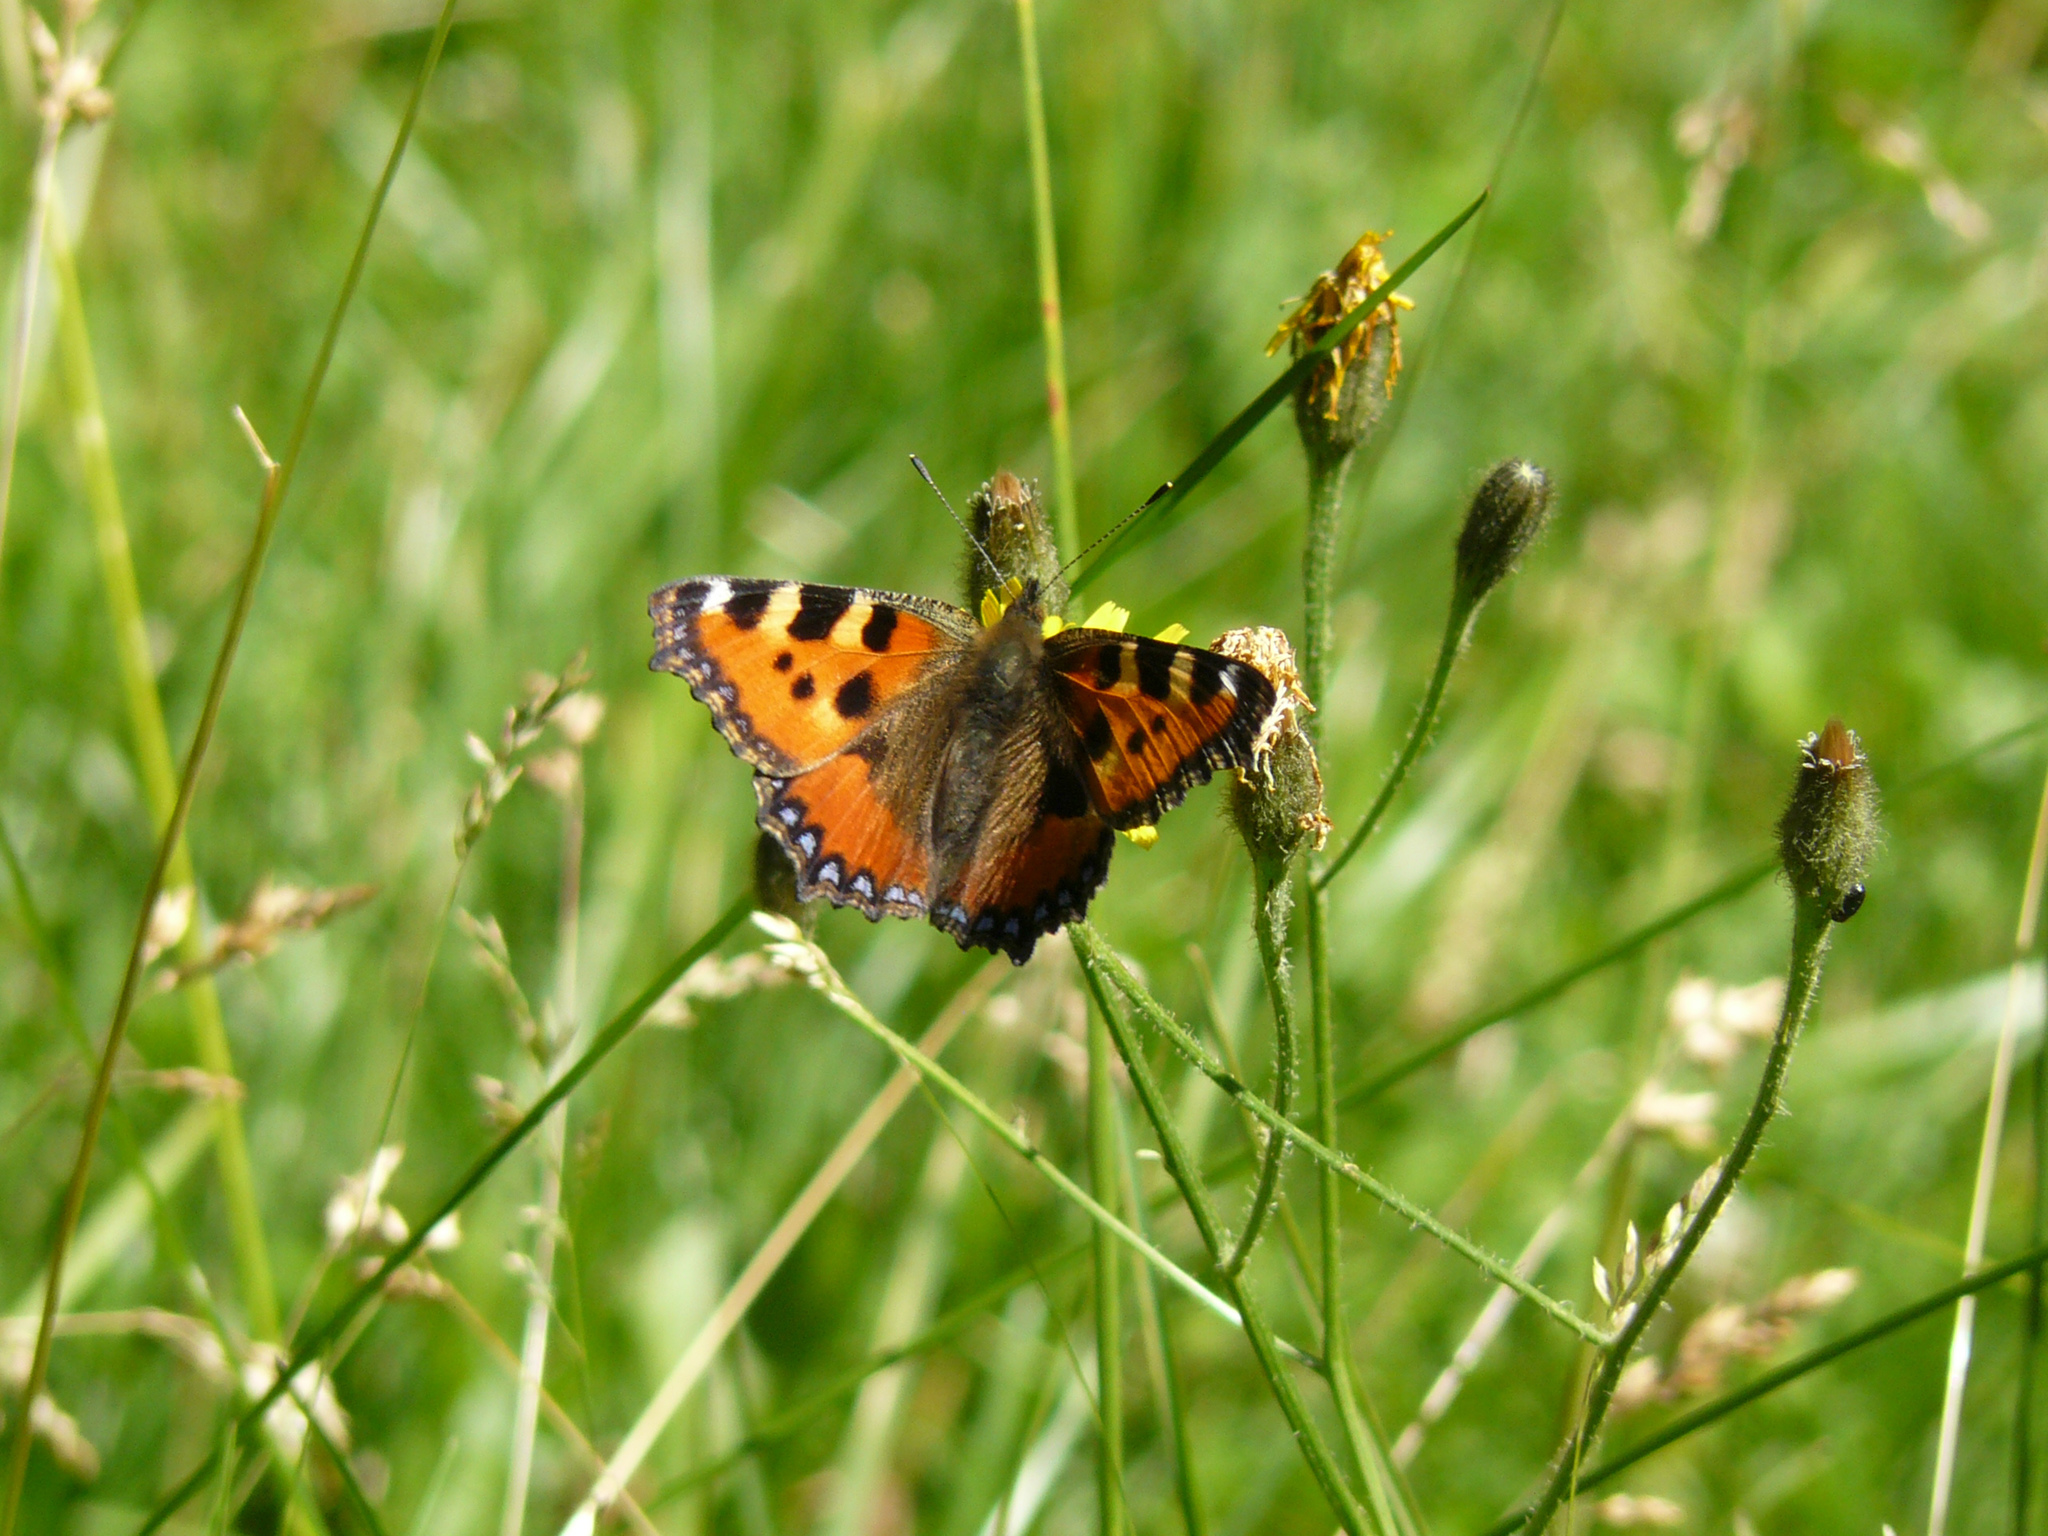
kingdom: Animalia
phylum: Arthropoda
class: Insecta
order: Lepidoptera
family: Nymphalidae
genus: Aglais
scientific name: Aglais urticae
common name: Small tortoiseshell
